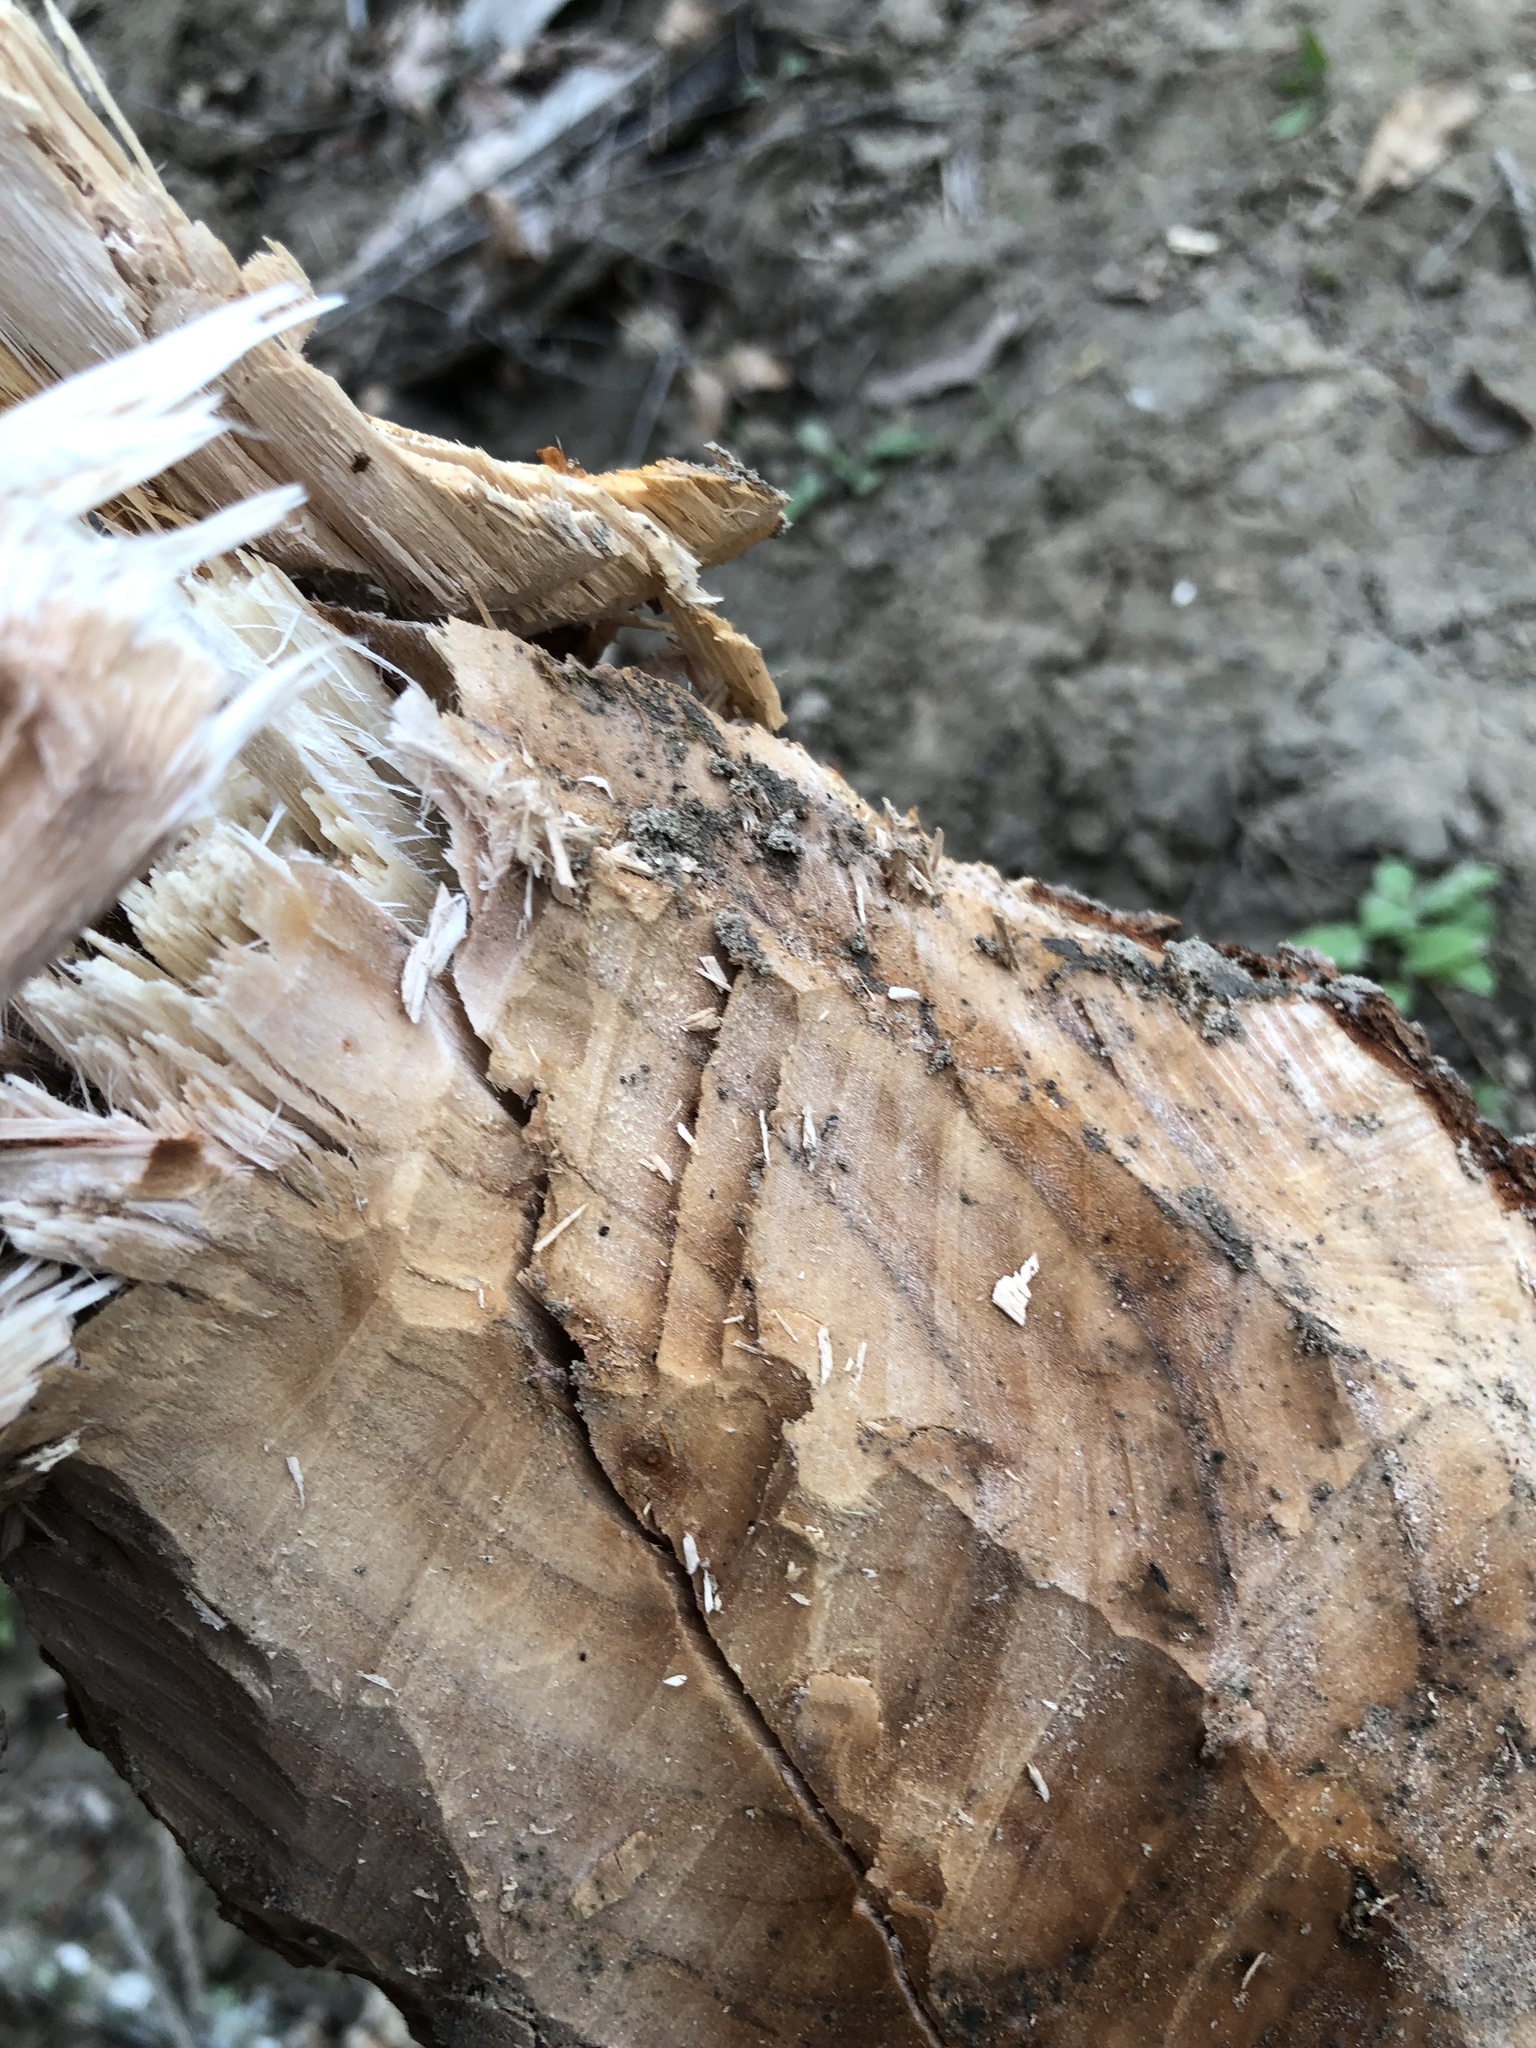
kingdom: Animalia
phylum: Chordata
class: Mammalia
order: Rodentia
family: Castoridae
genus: Castor
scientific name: Castor canadensis
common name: American beaver
